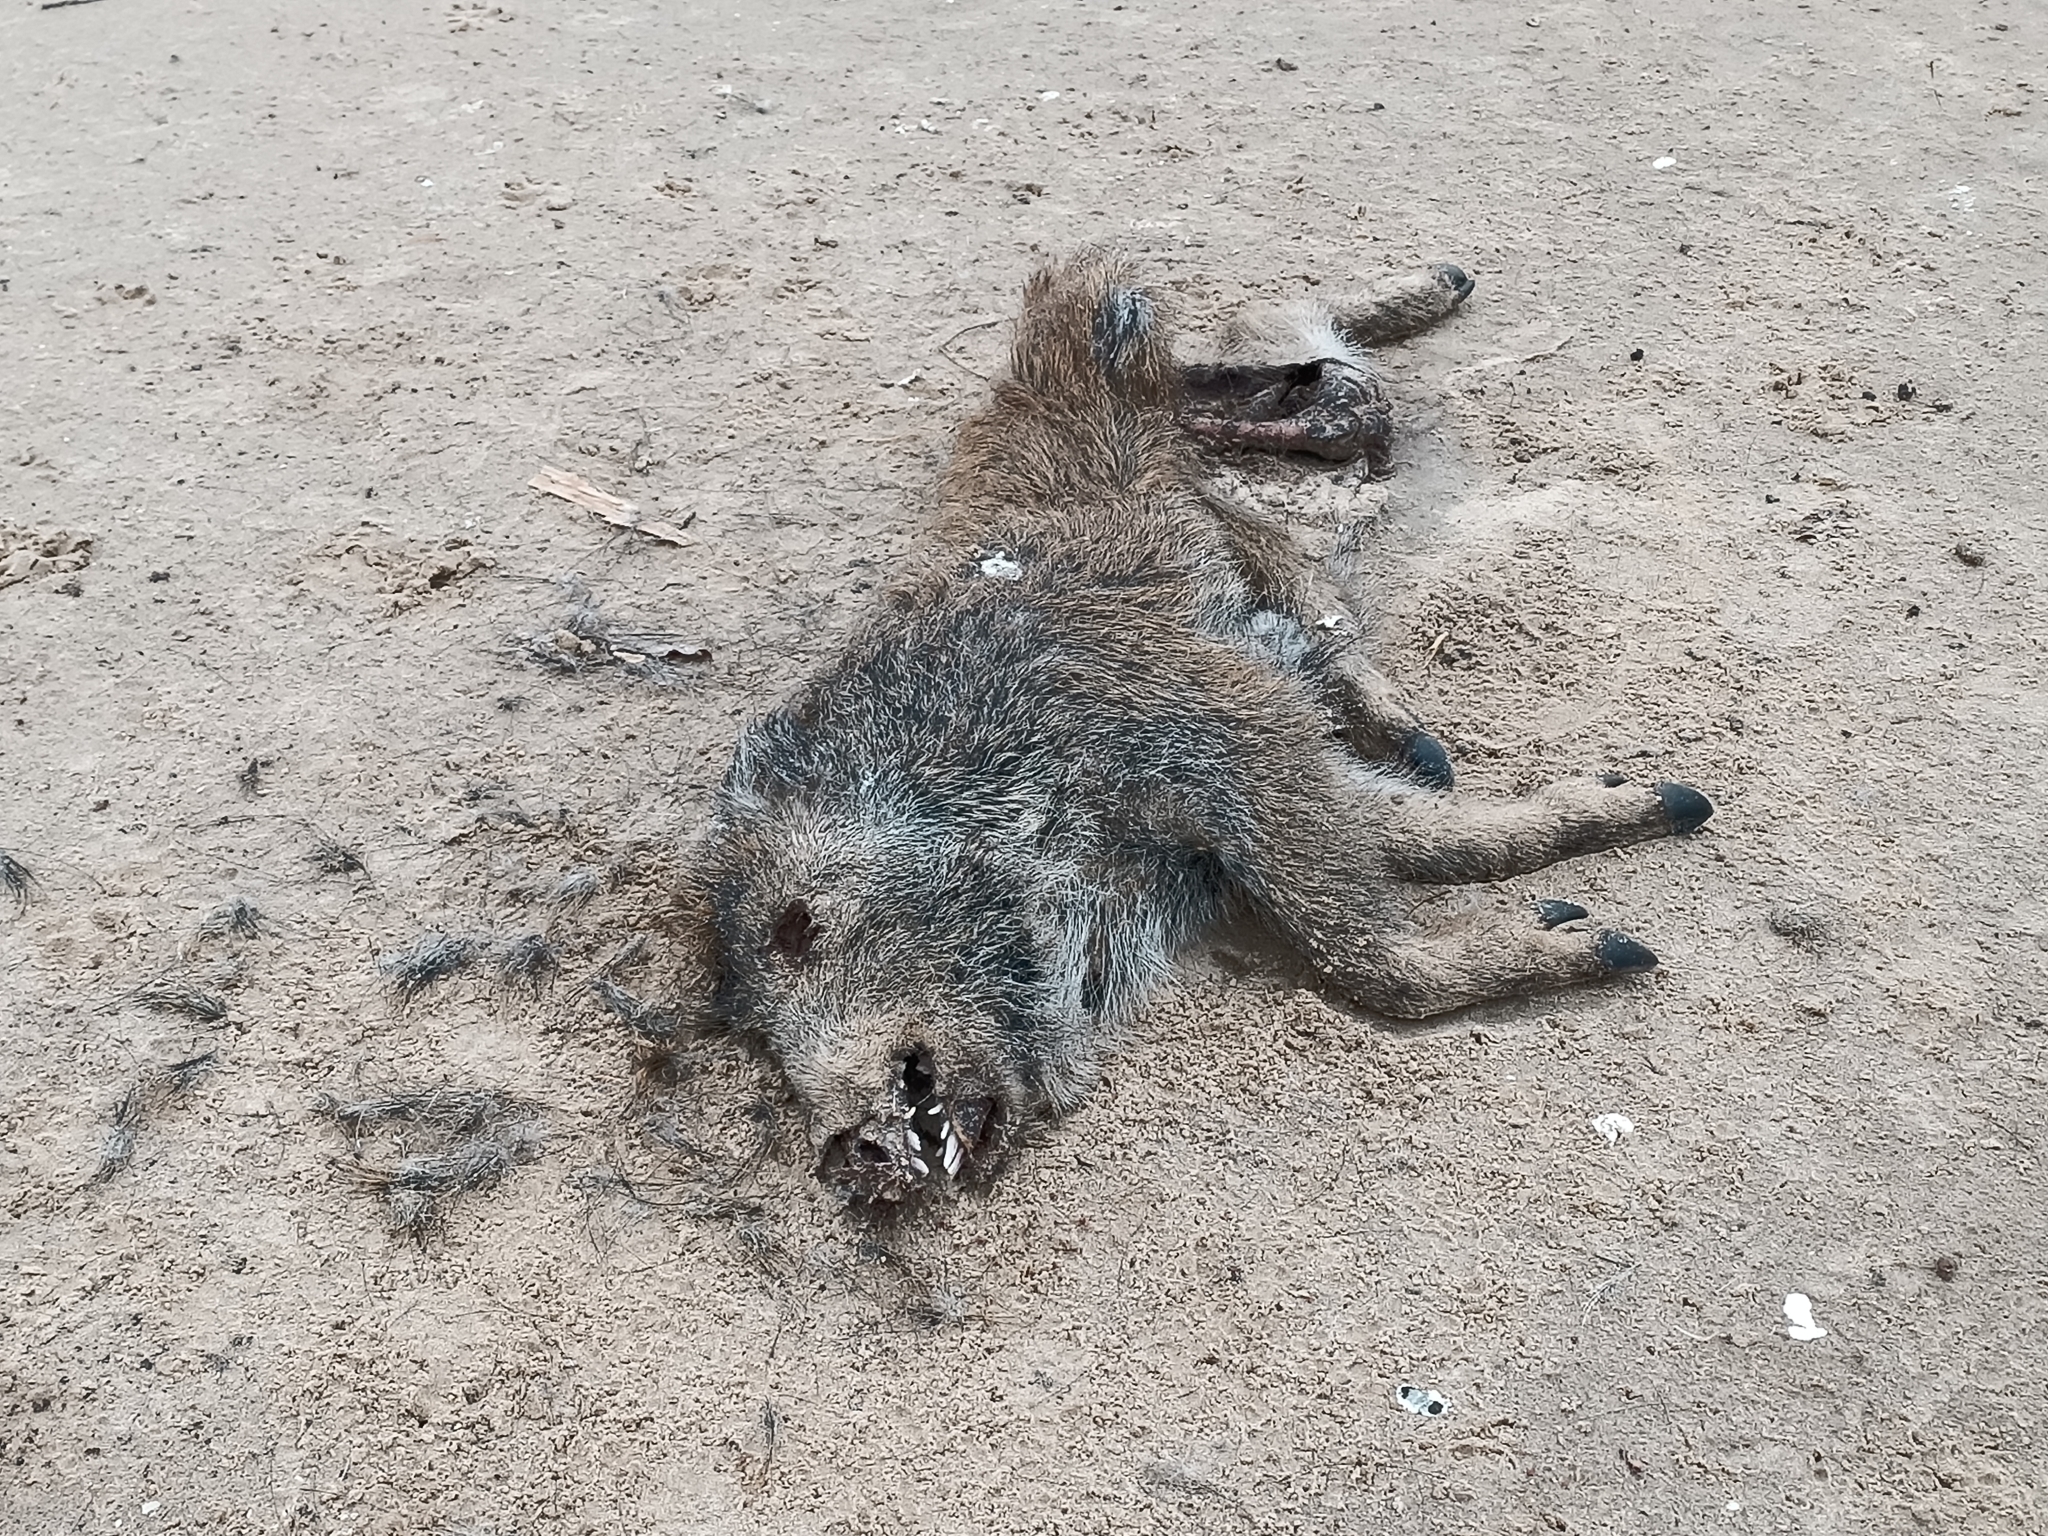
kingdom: Animalia
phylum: Chordata
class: Mammalia
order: Artiodactyla
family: Suidae
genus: Sus
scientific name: Sus scrofa
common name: Wild boar
